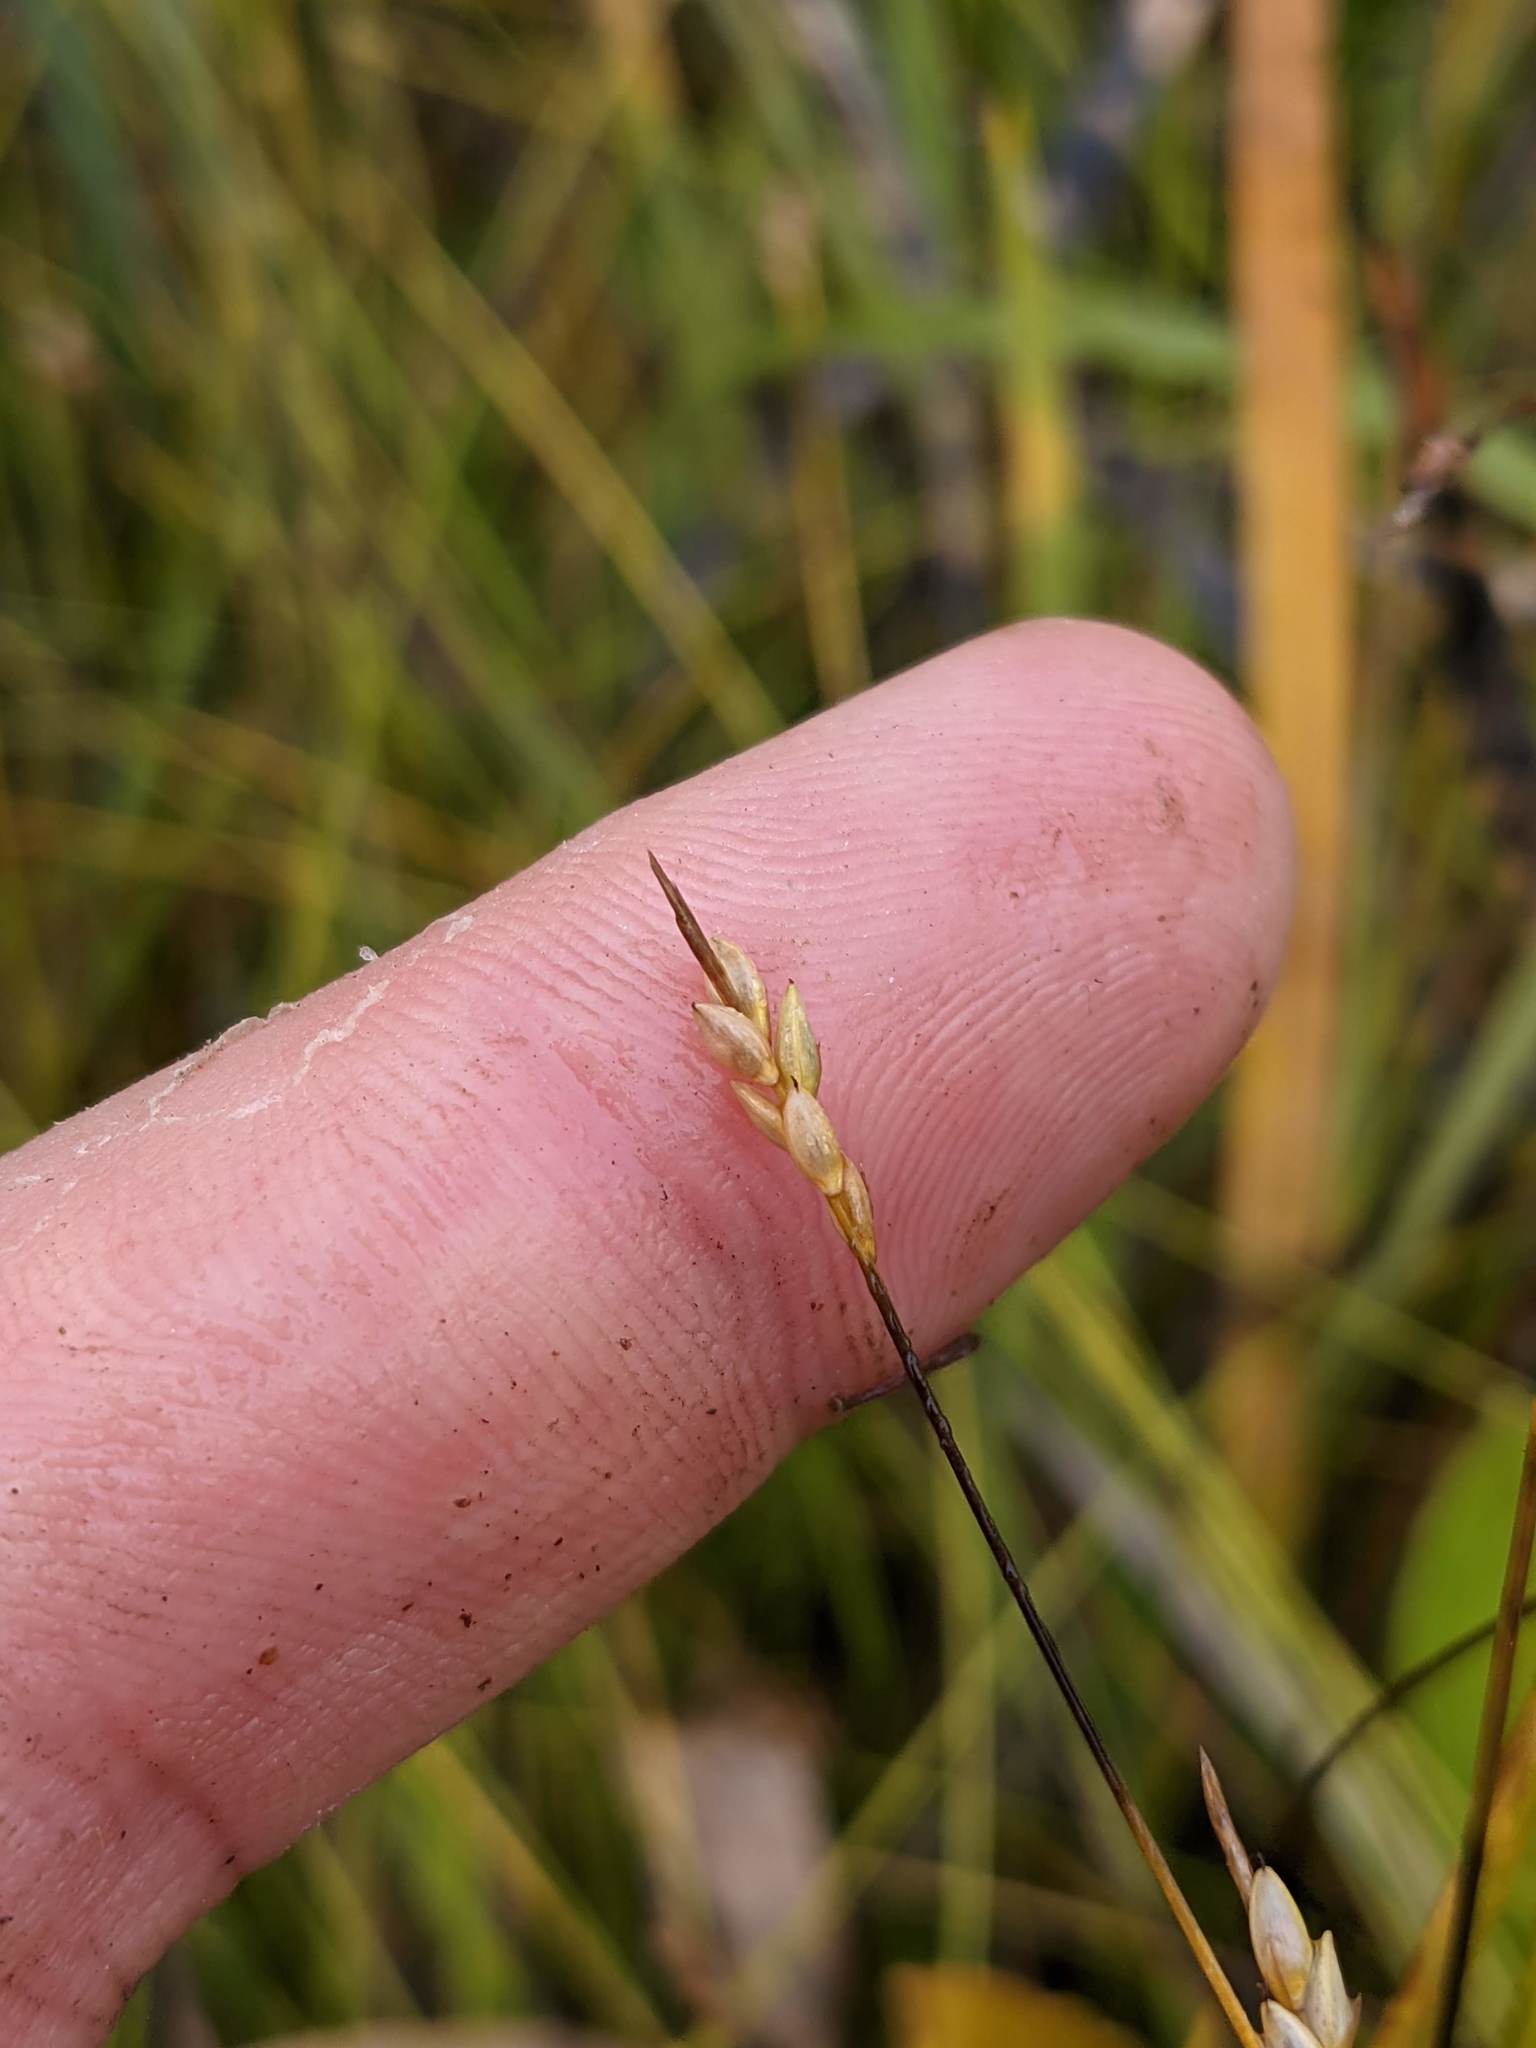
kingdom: Plantae
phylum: Tracheophyta
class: Liliopsida
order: Poales
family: Cyperaceae
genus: Carex
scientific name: Carex leptalea
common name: Bristly-stalked sedge
